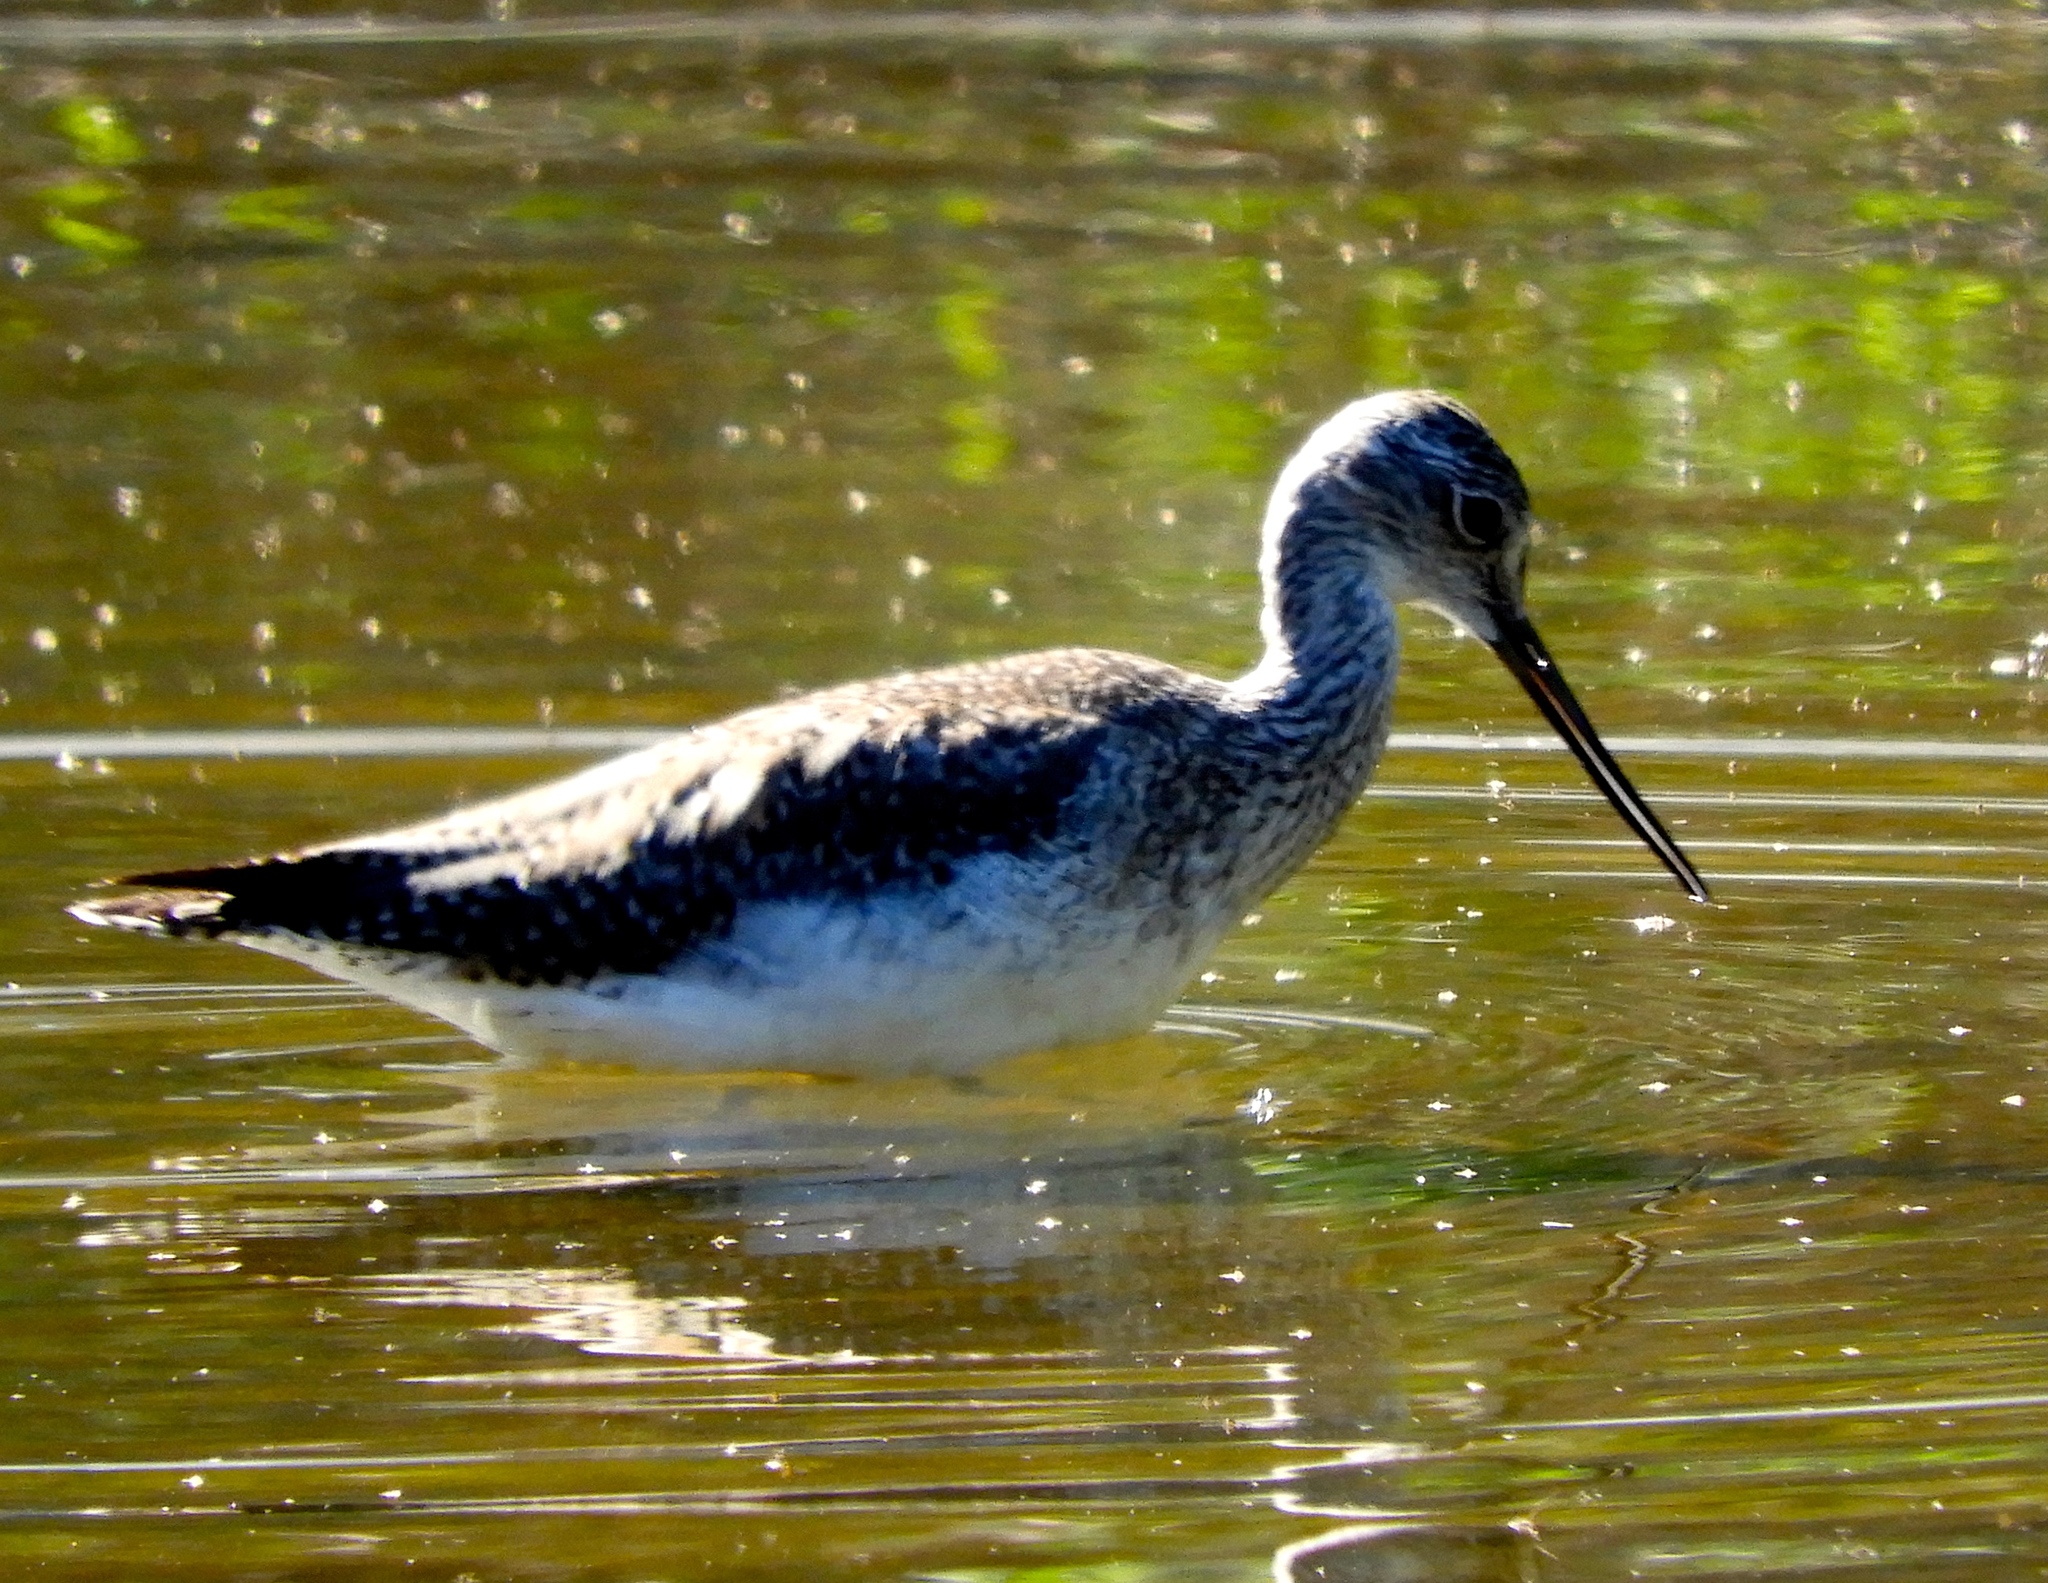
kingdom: Animalia
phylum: Chordata
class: Aves
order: Charadriiformes
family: Scolopacidae
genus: Tringa
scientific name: Tringa melanoleuca
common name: Greater yellowlegs
